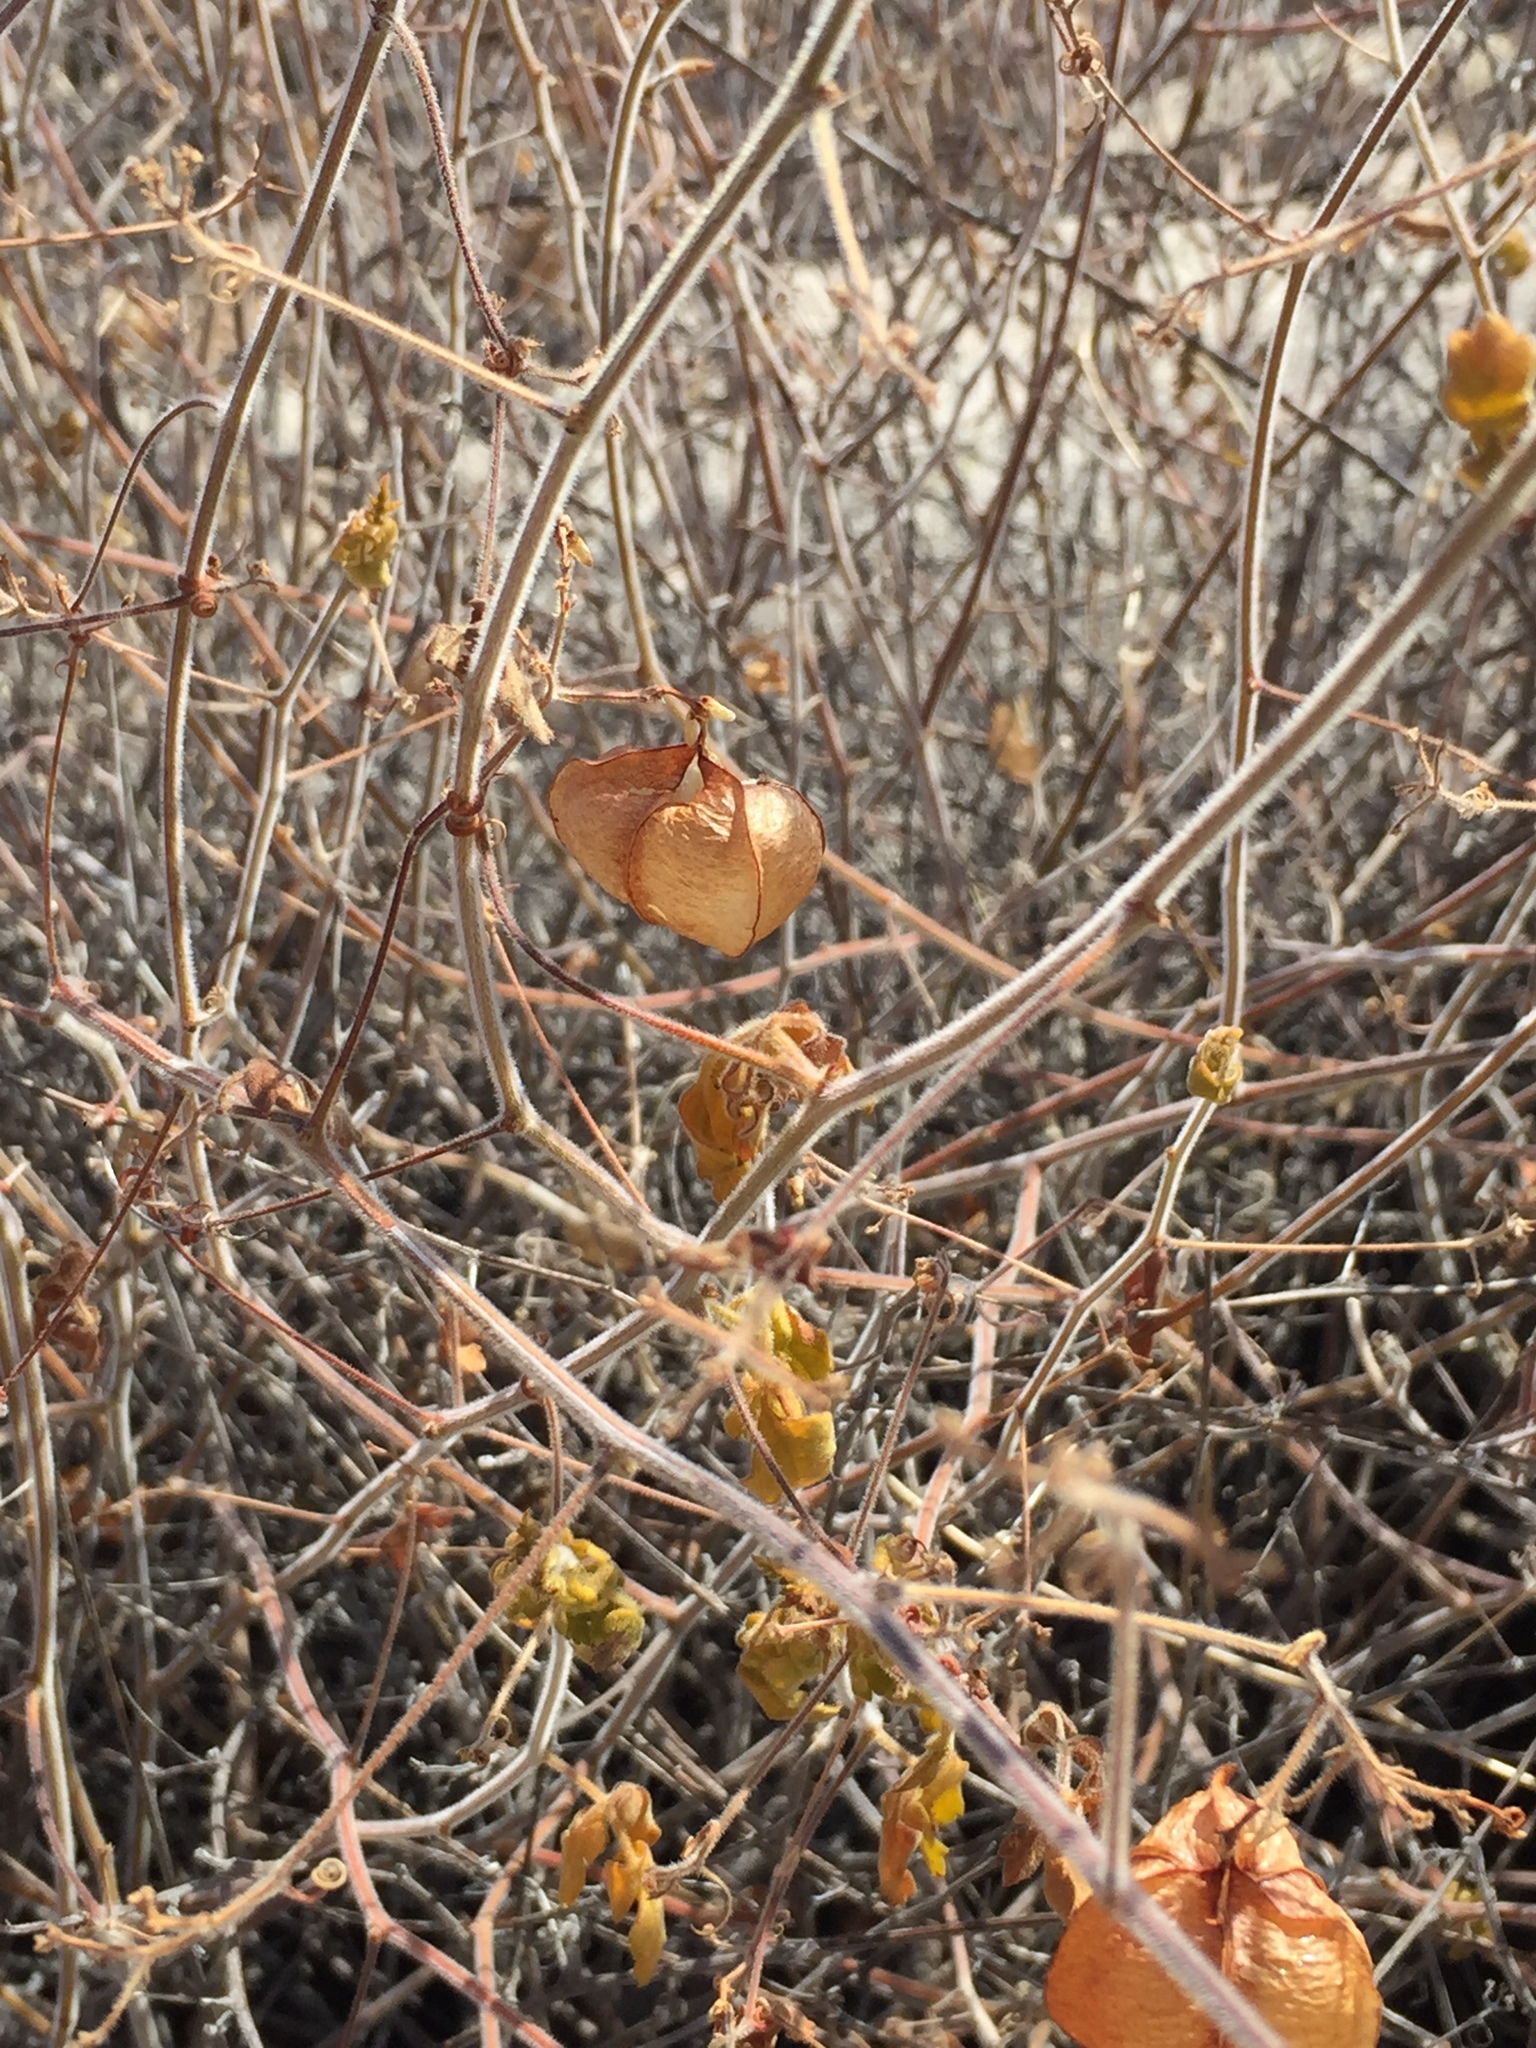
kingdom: Plantae
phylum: Tracheophyta
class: Magnoliopsida
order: Sapindales
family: Sapindaceae
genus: Cardiospermum
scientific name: Cardiospermum corindum
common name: Faux persil
